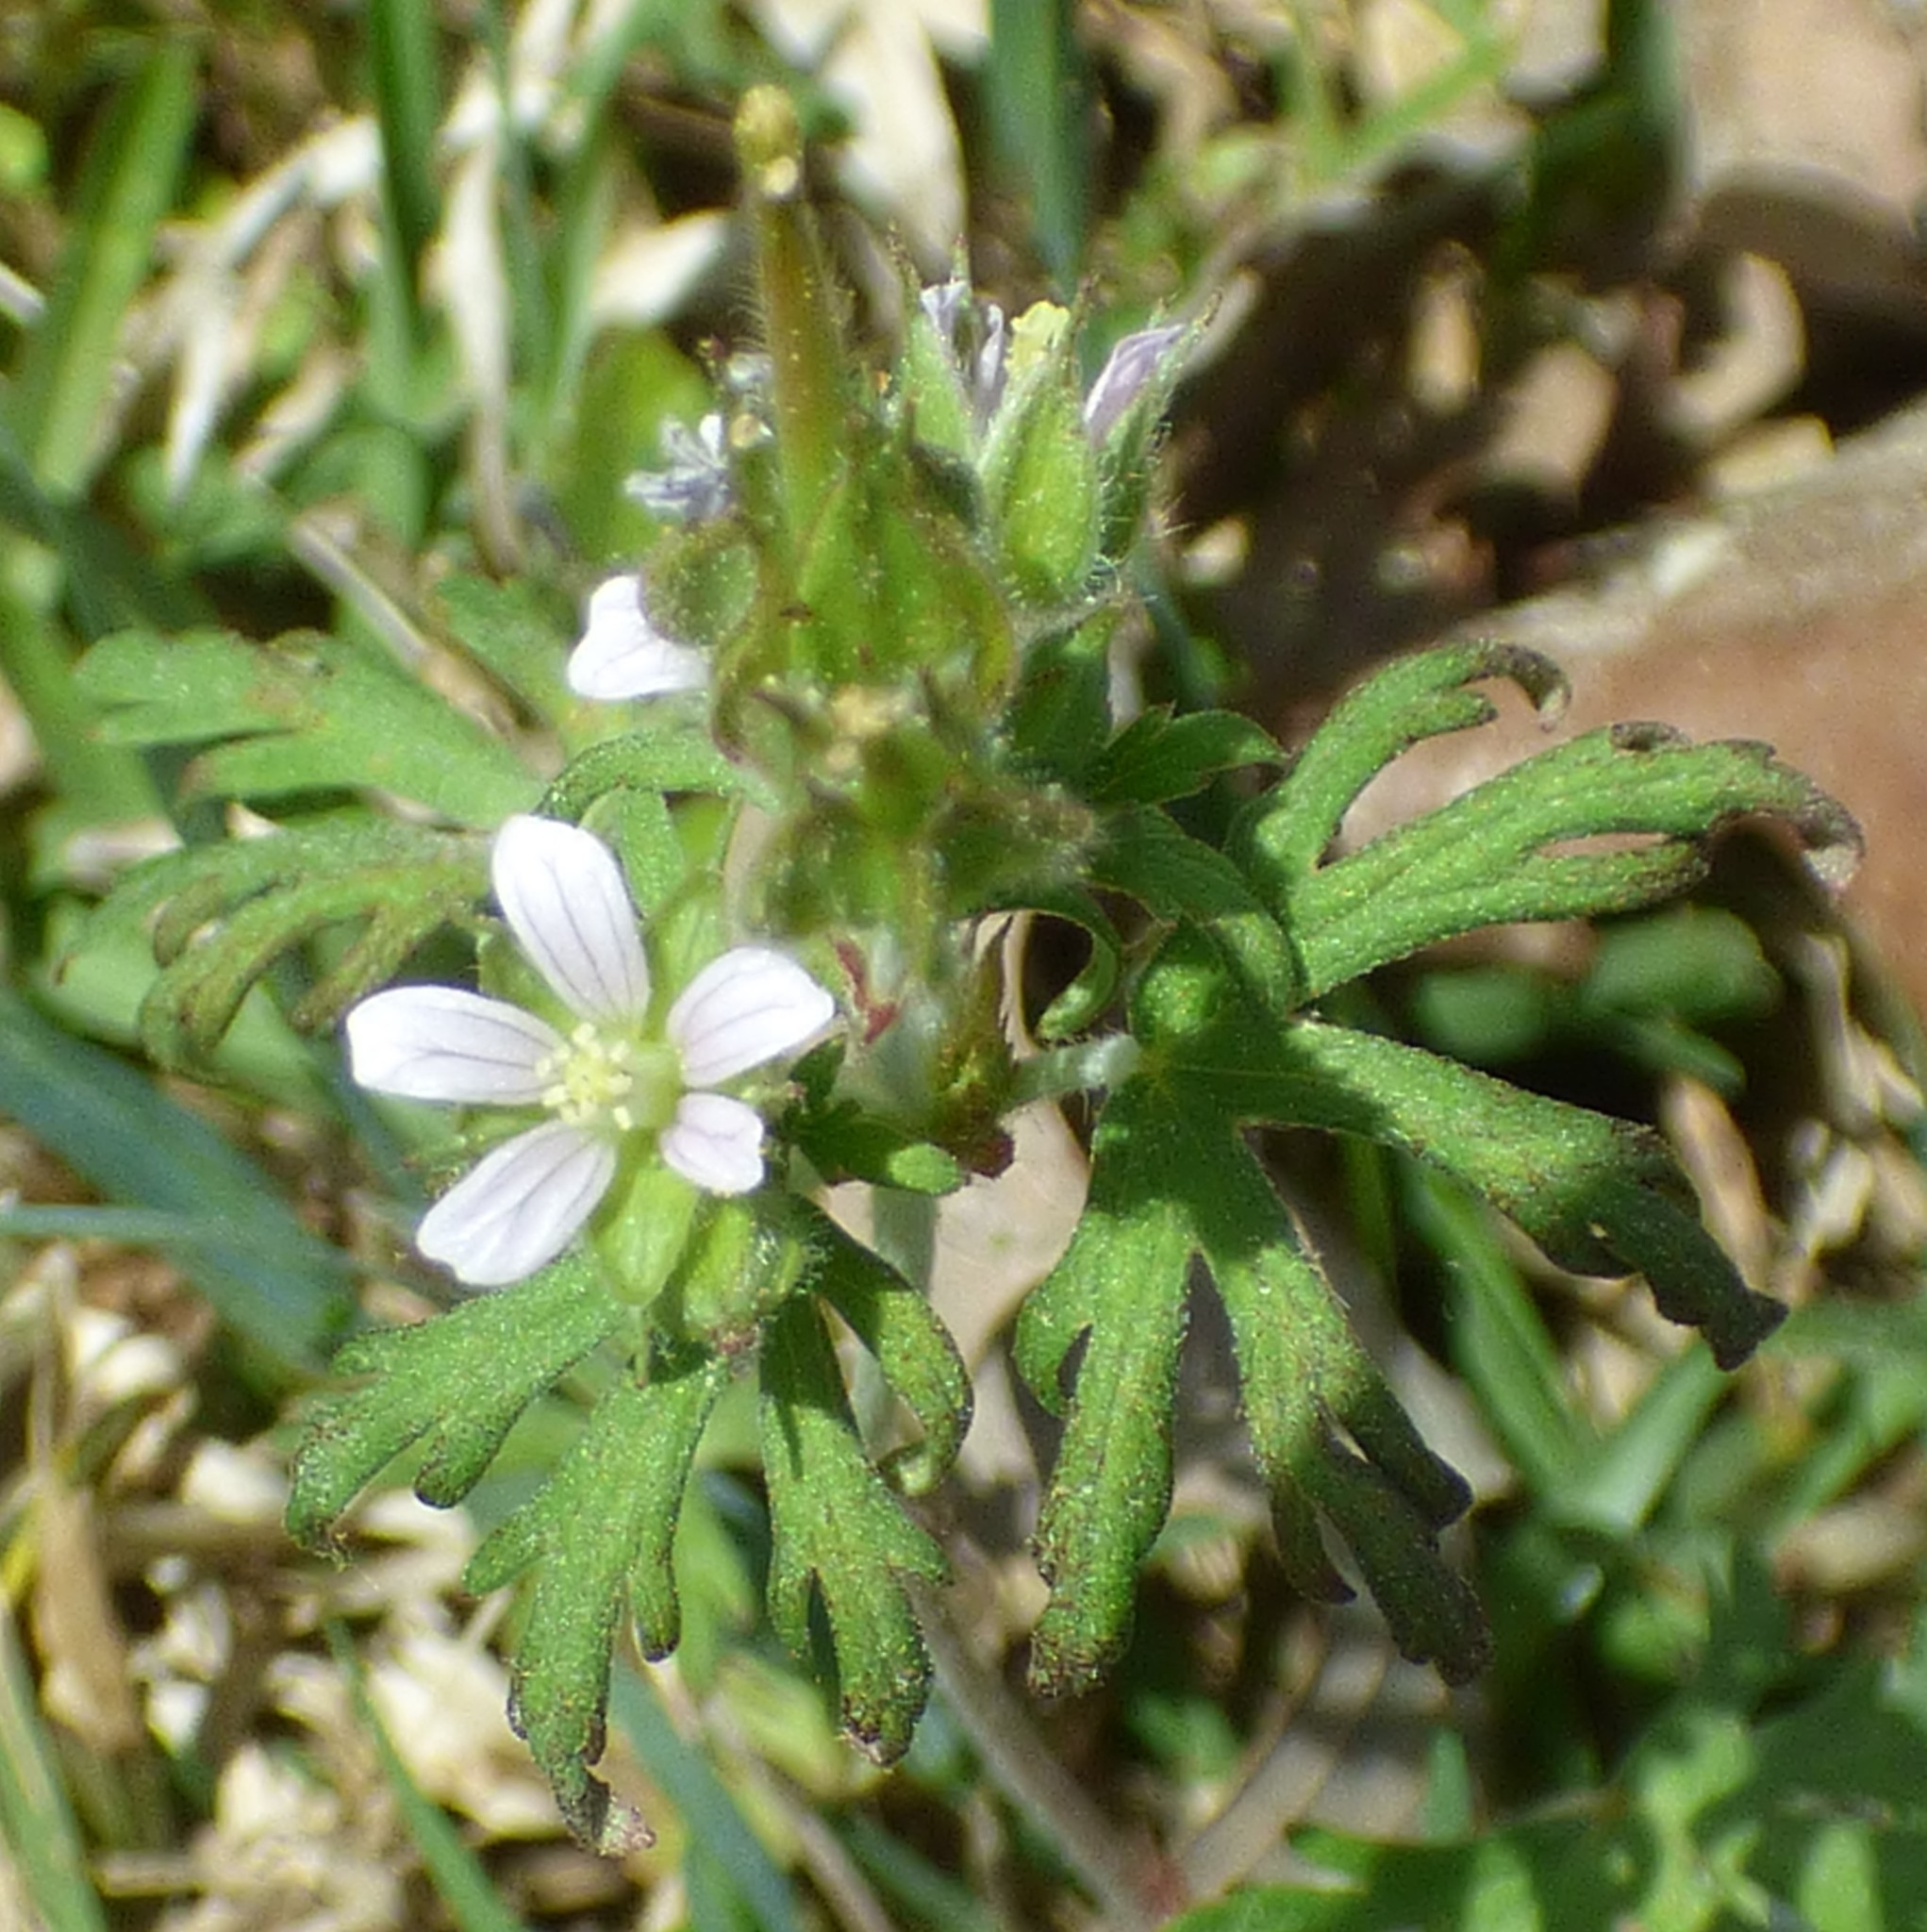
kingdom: Plantae
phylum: Tracheophyta
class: Magnoliopsida
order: Geraniales
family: Geraniaceae
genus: Geranium
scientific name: Geranium carolinianum
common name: Carolina crane's-bill
